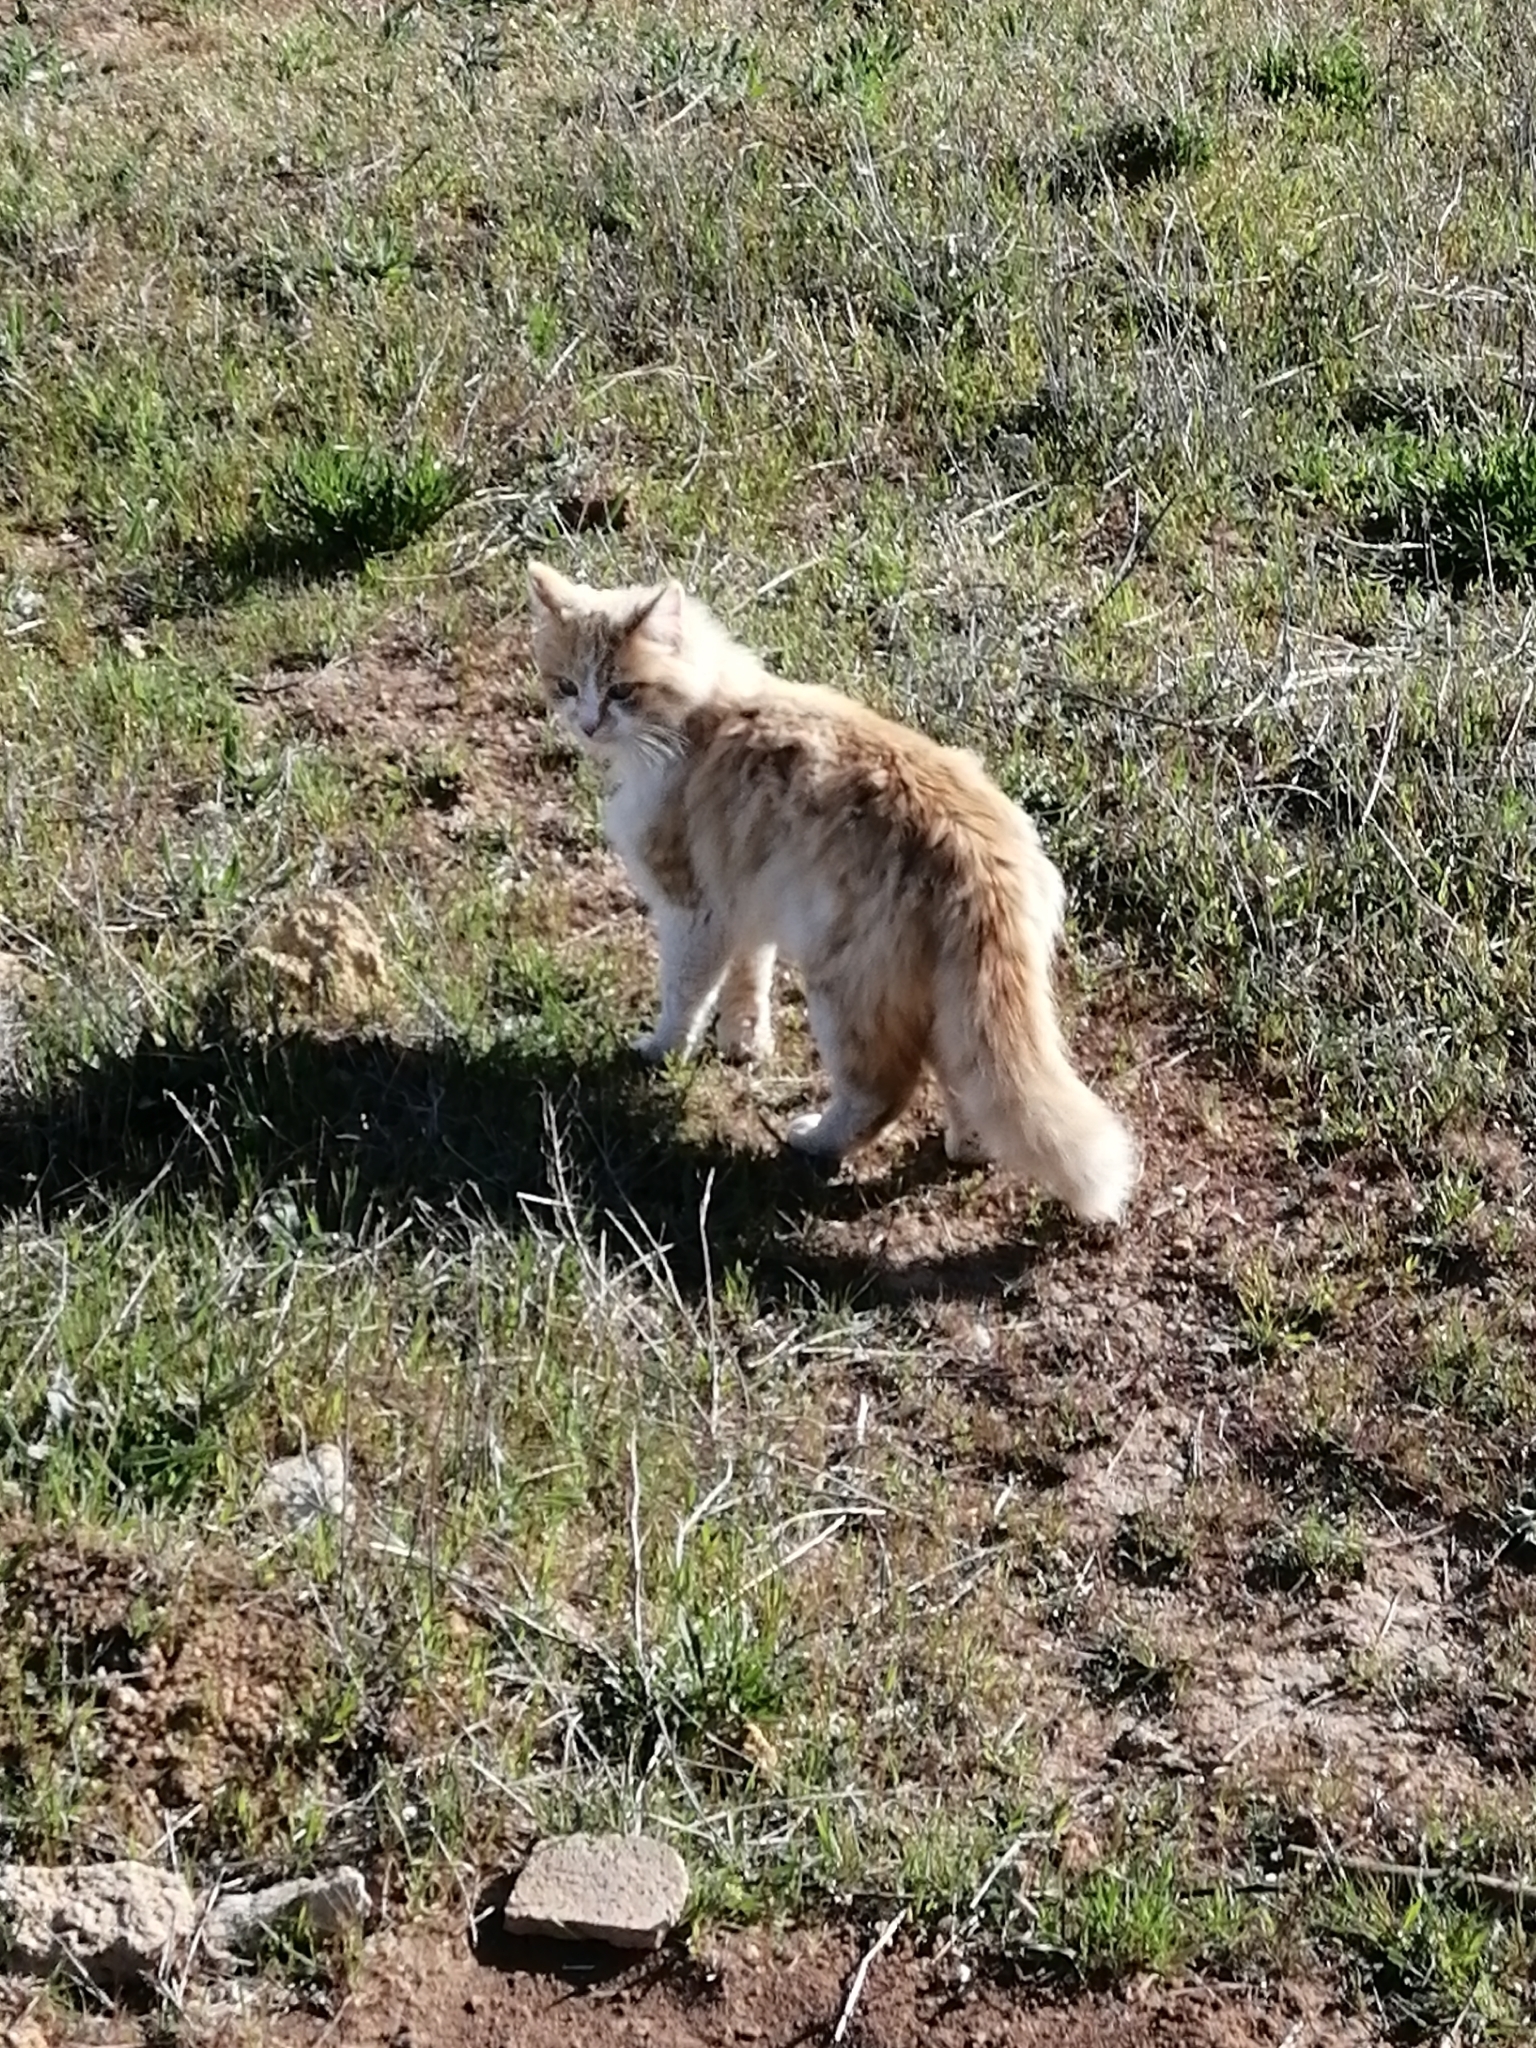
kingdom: Animalia
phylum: Chordata
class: Mammalia
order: Carnivora
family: Felidae
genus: Felis
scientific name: Felis catus
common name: Domestic cat
